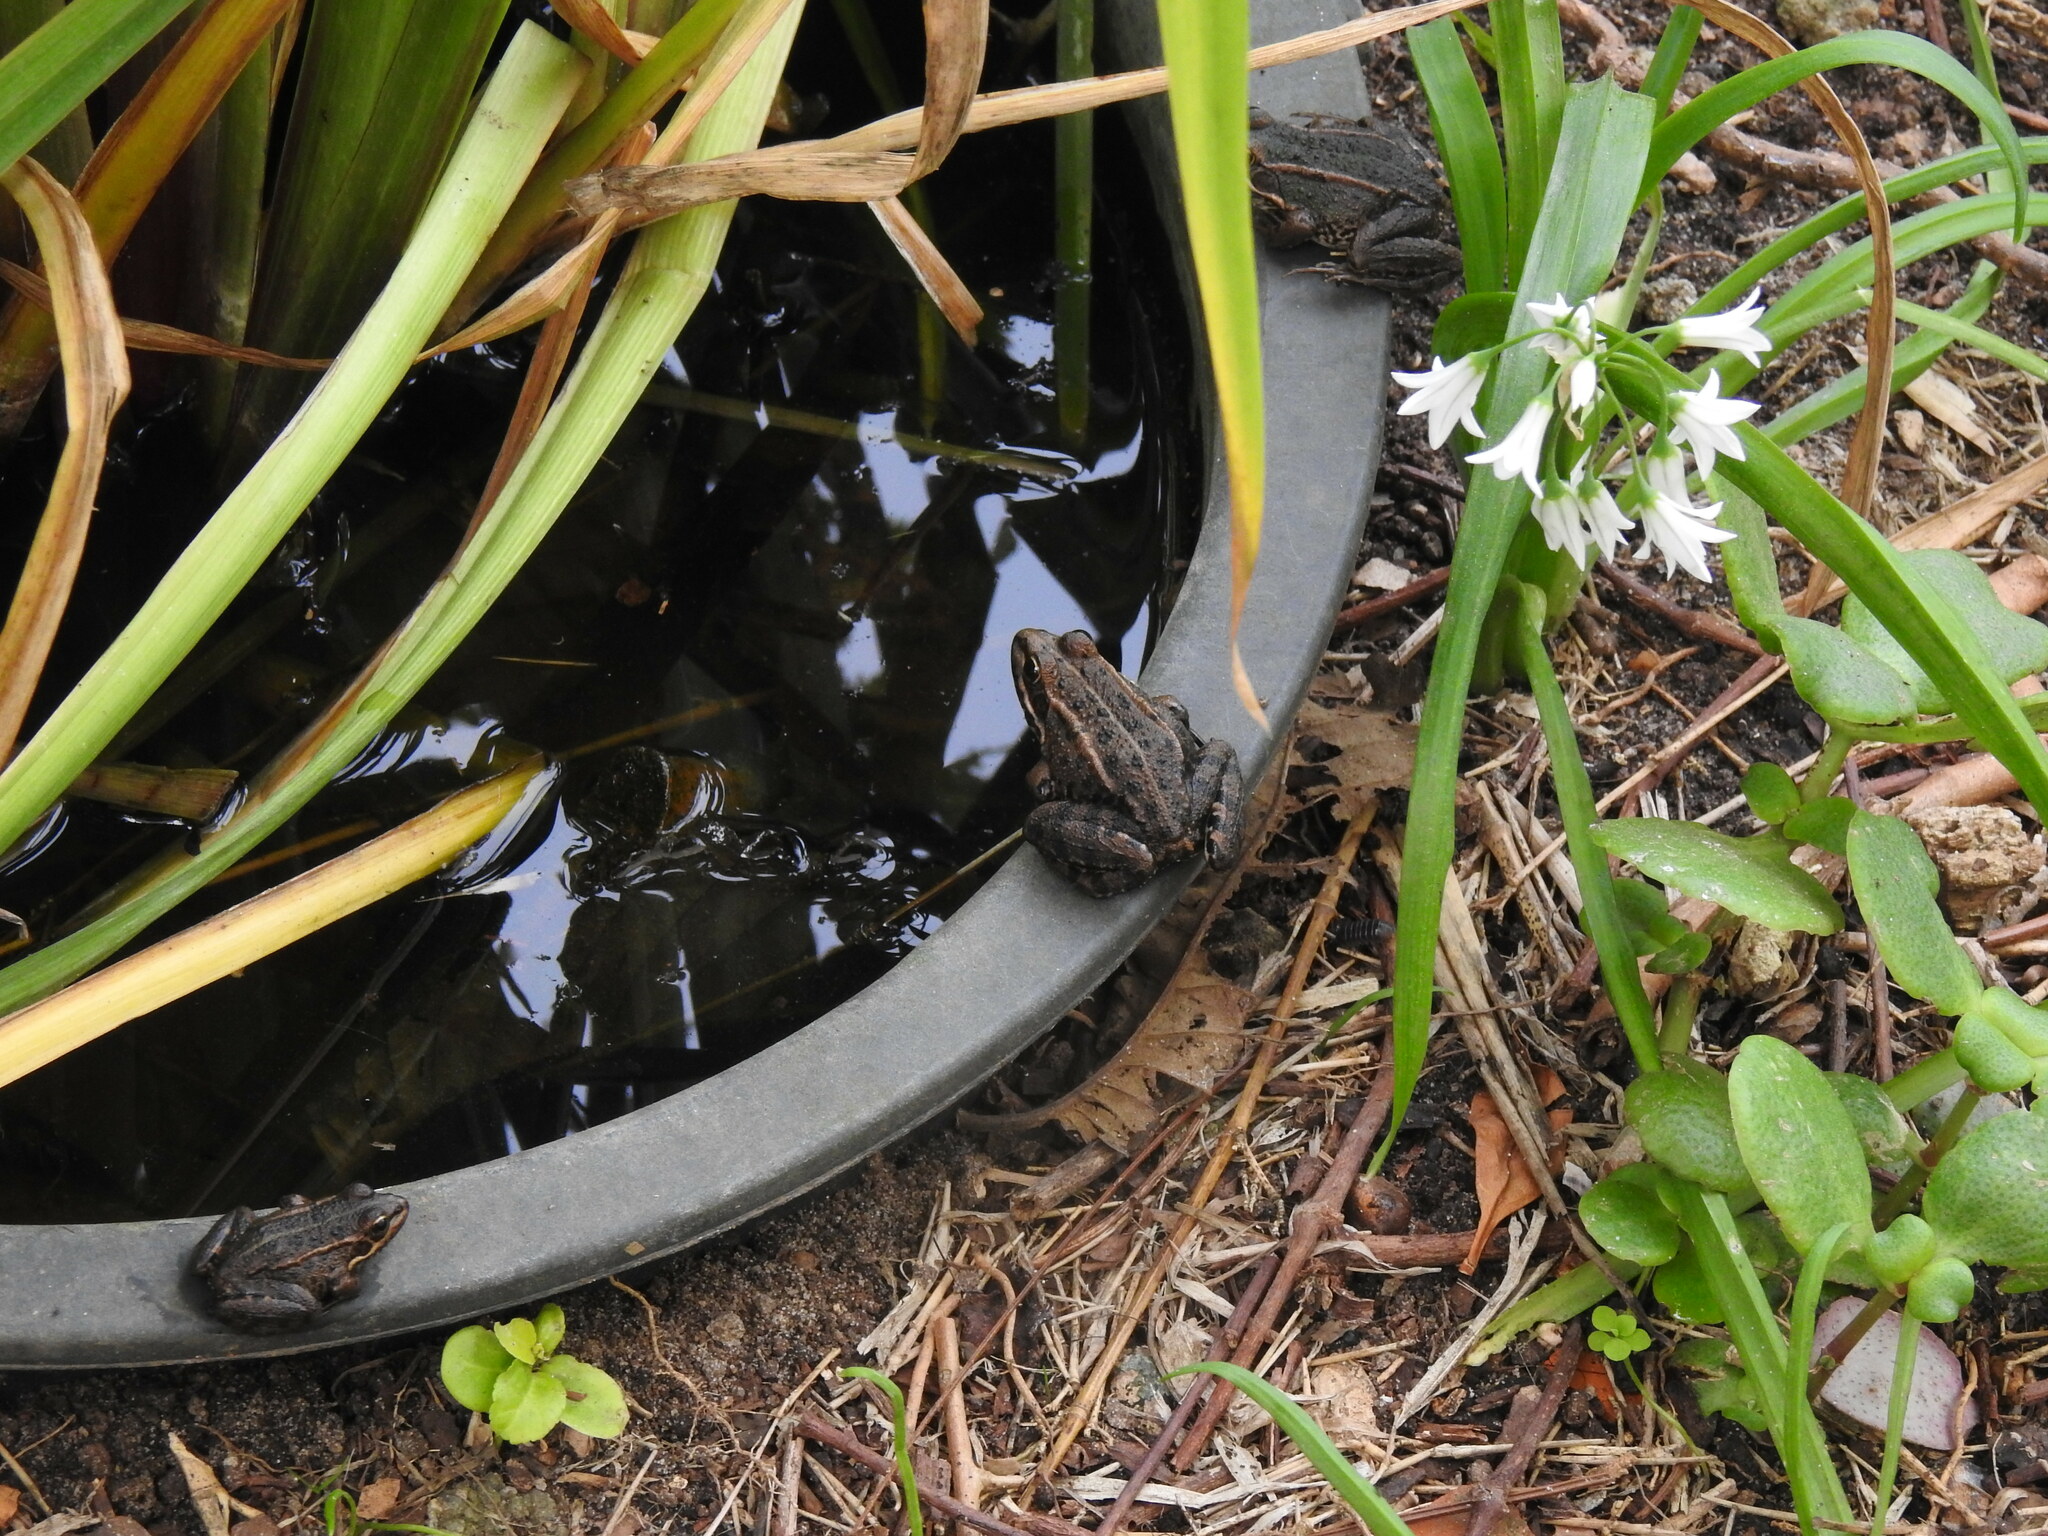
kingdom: Animalia
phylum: Chordata
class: Amphibia
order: Anura
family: Ranidae
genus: Pelophylax
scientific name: Pelophylax perezi
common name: Perez's frog
